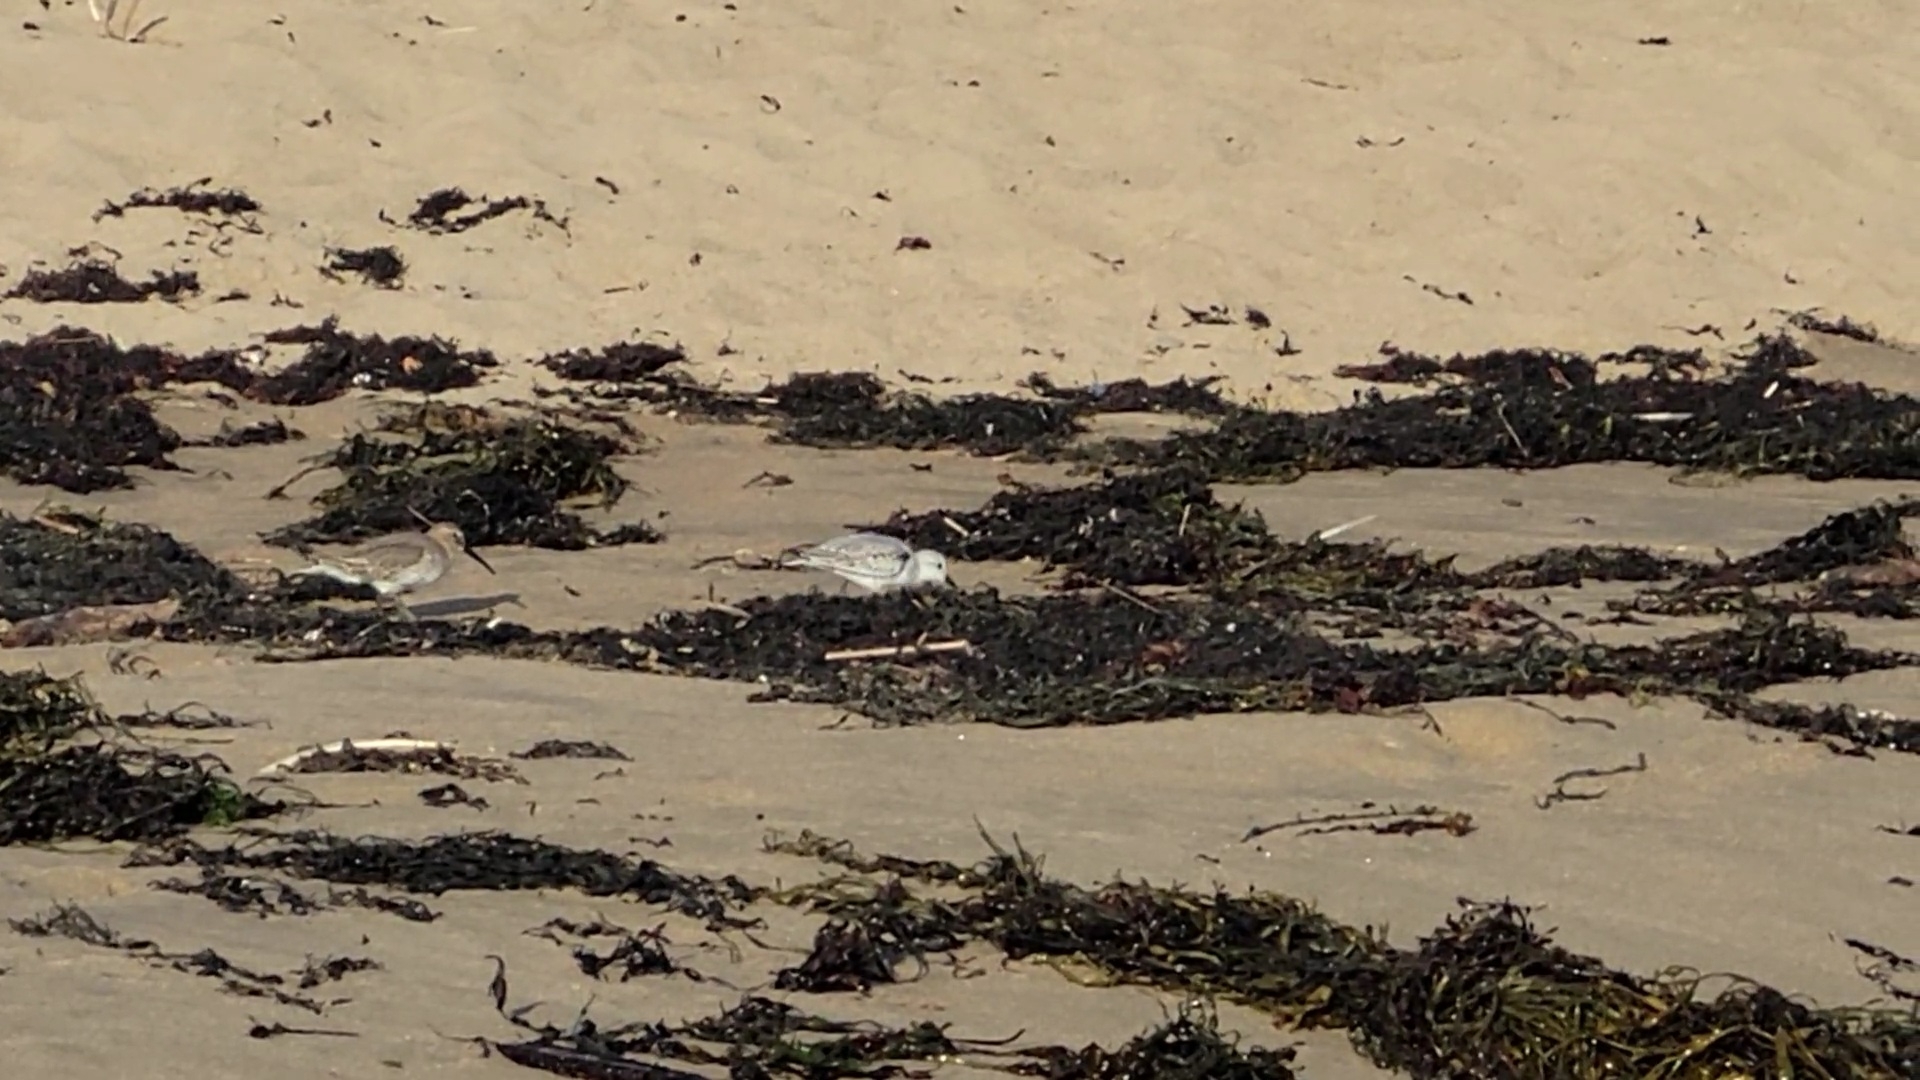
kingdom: Animalia
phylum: Chordata
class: Aves
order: Charadriiformes
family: Scolopacidae
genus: Calidris
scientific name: Calidris alpina
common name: Dunlin
